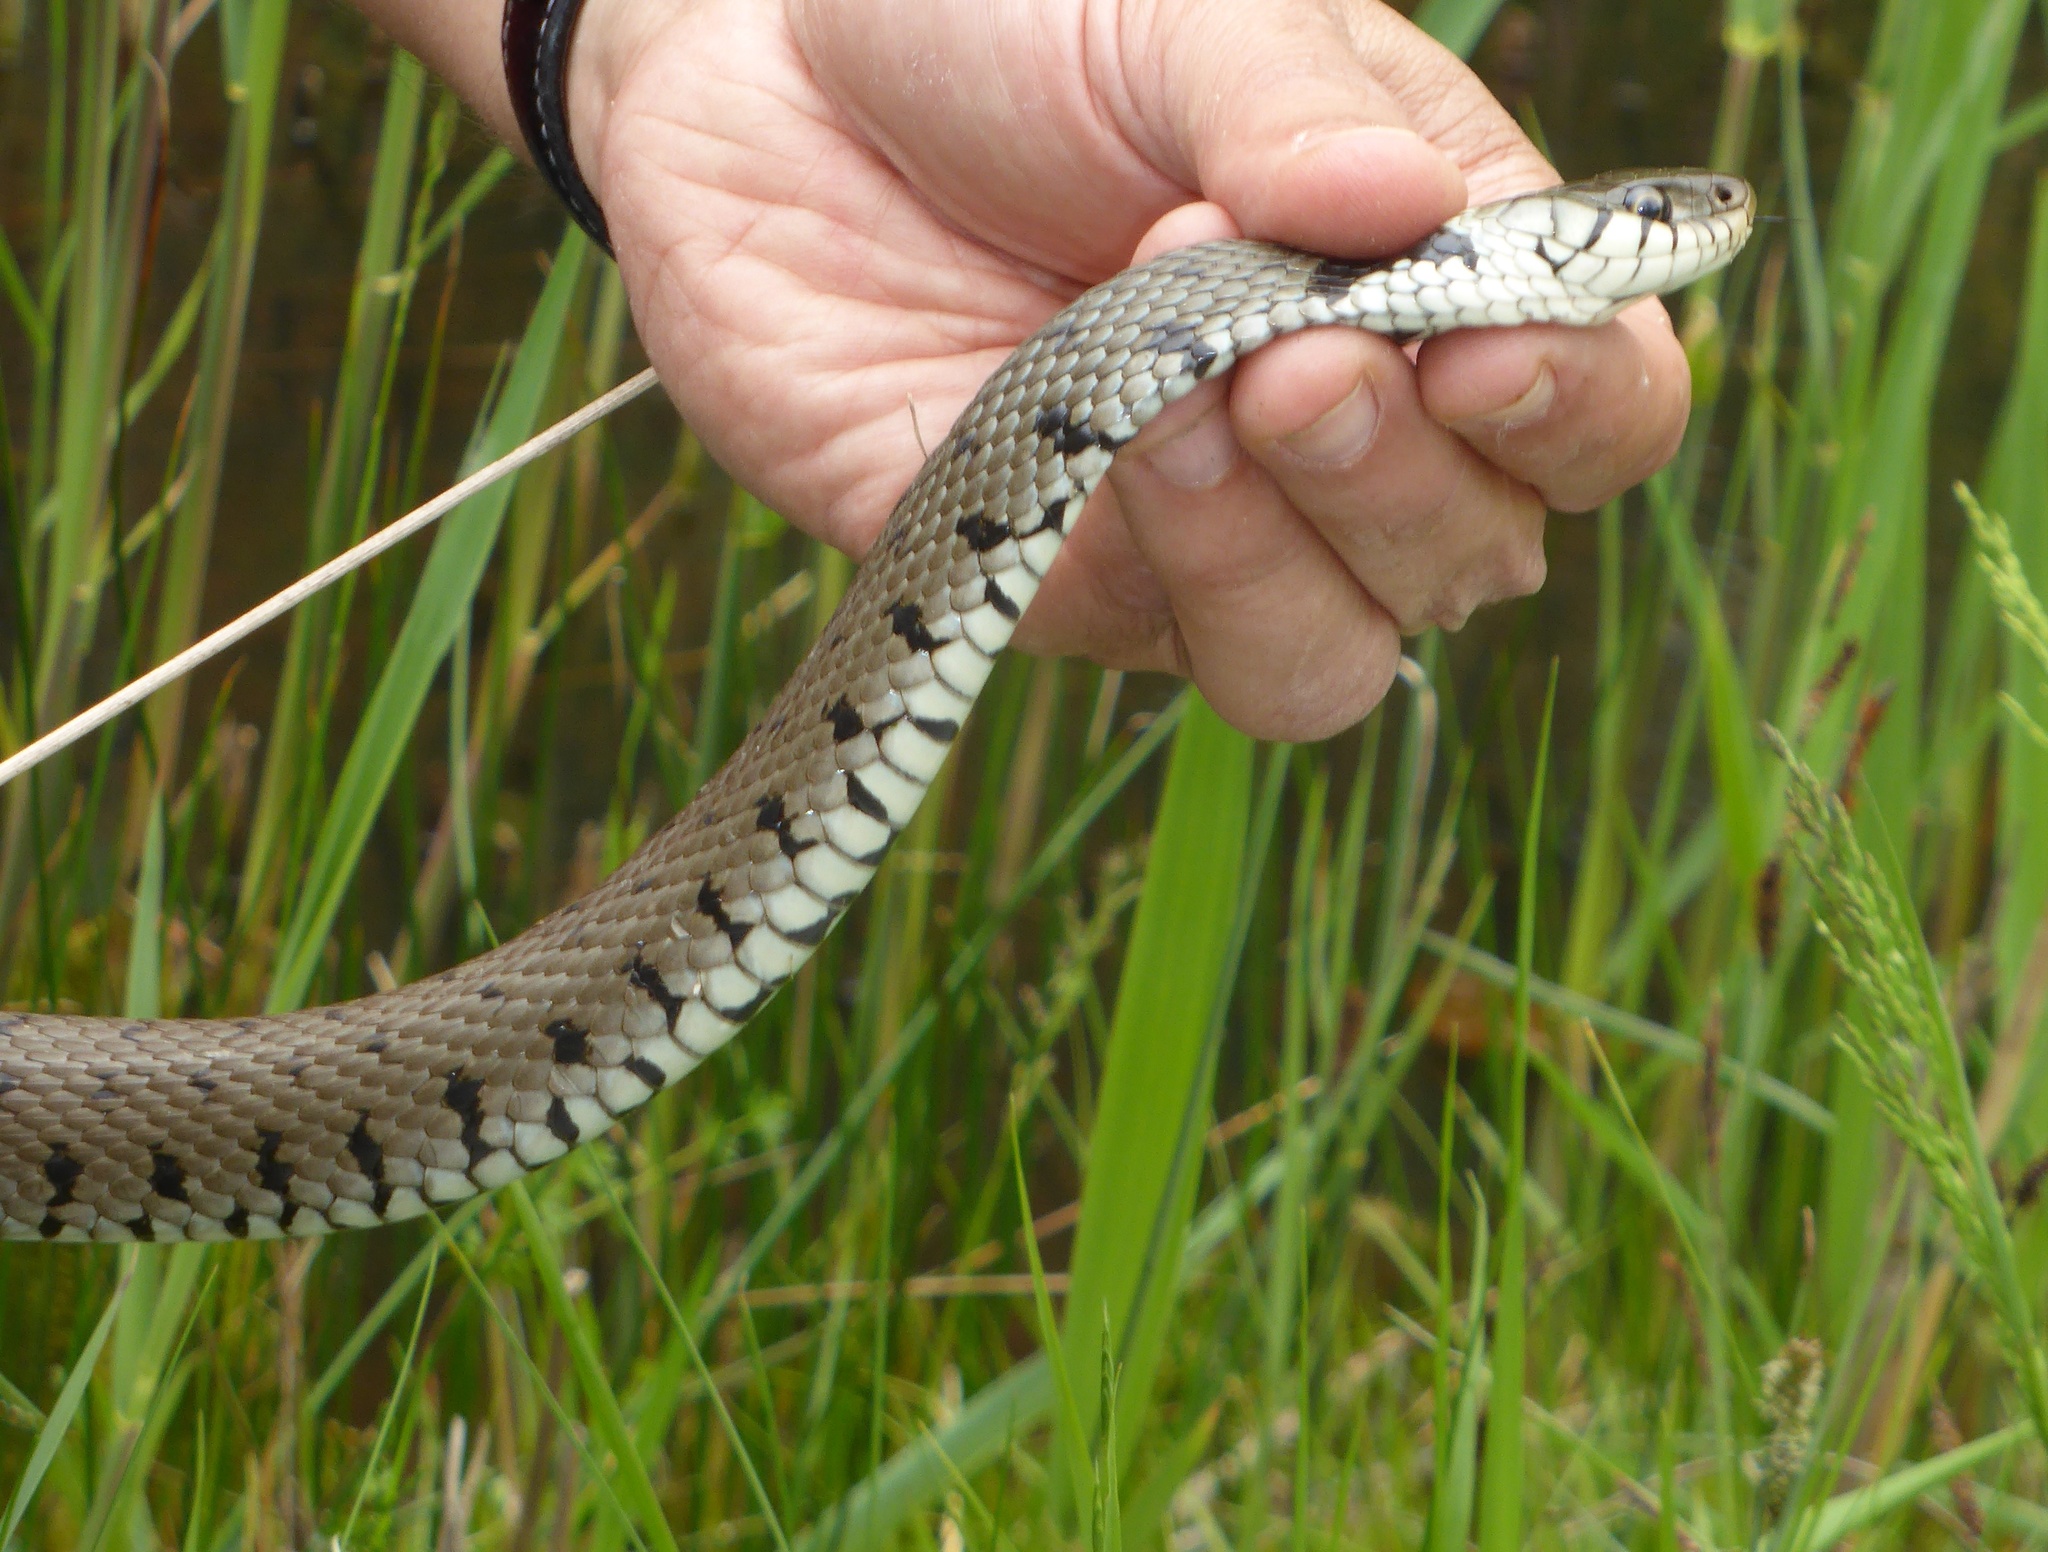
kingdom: Animalia
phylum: Chordata
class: Squamata
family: Colubridae
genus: Natrix
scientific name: Natrix helvetica
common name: Banded grass snake
